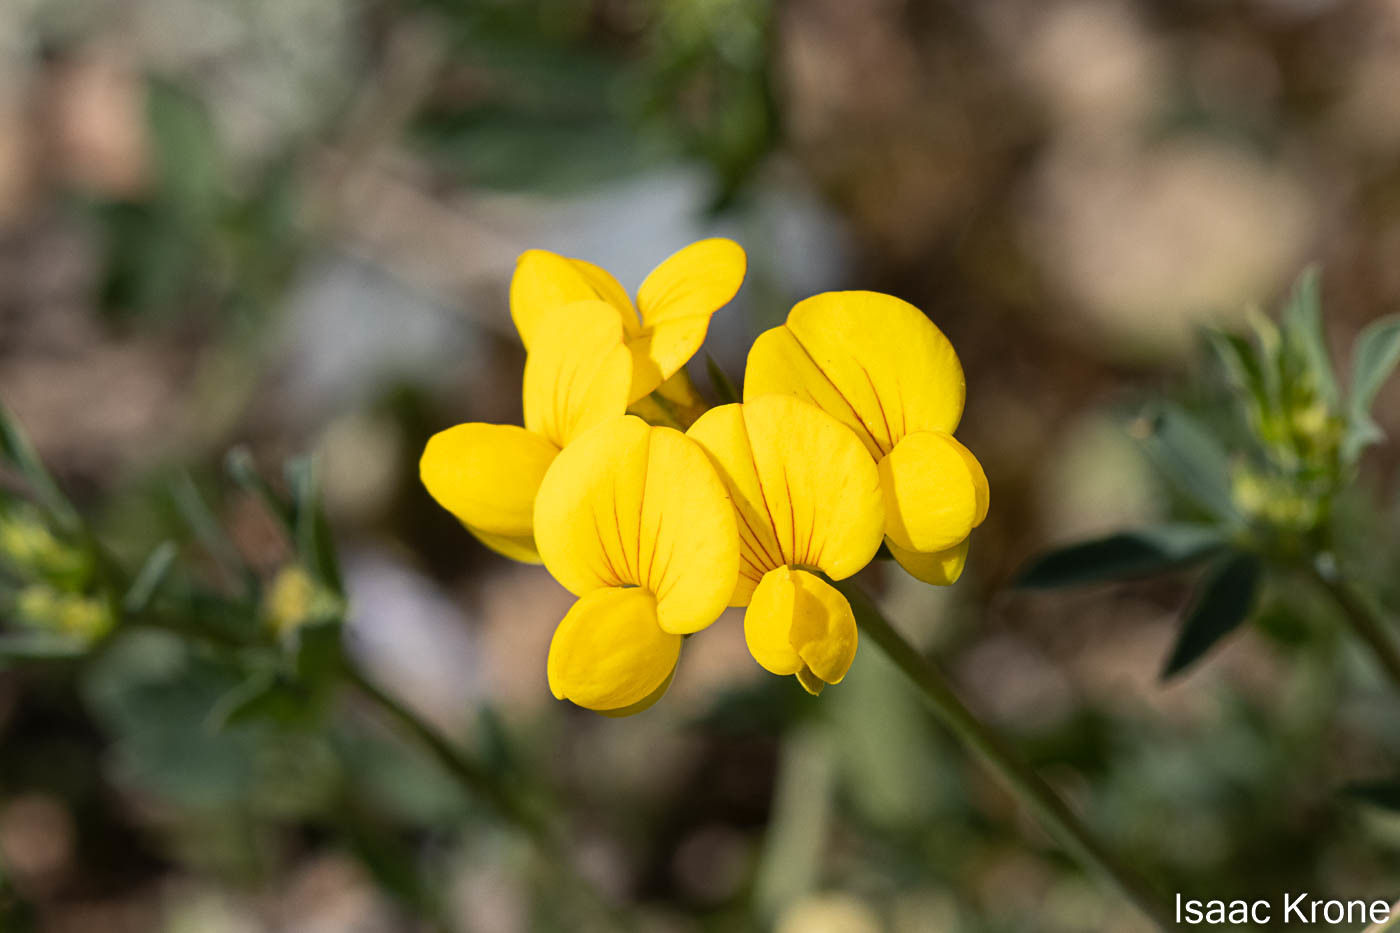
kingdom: Plantae
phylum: Tracheophyta
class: Magnoliopsida
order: Fabales
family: Fabaceae
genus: Lotus
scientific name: Lotus corniculatus
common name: Common bird's-foot-trefoil
